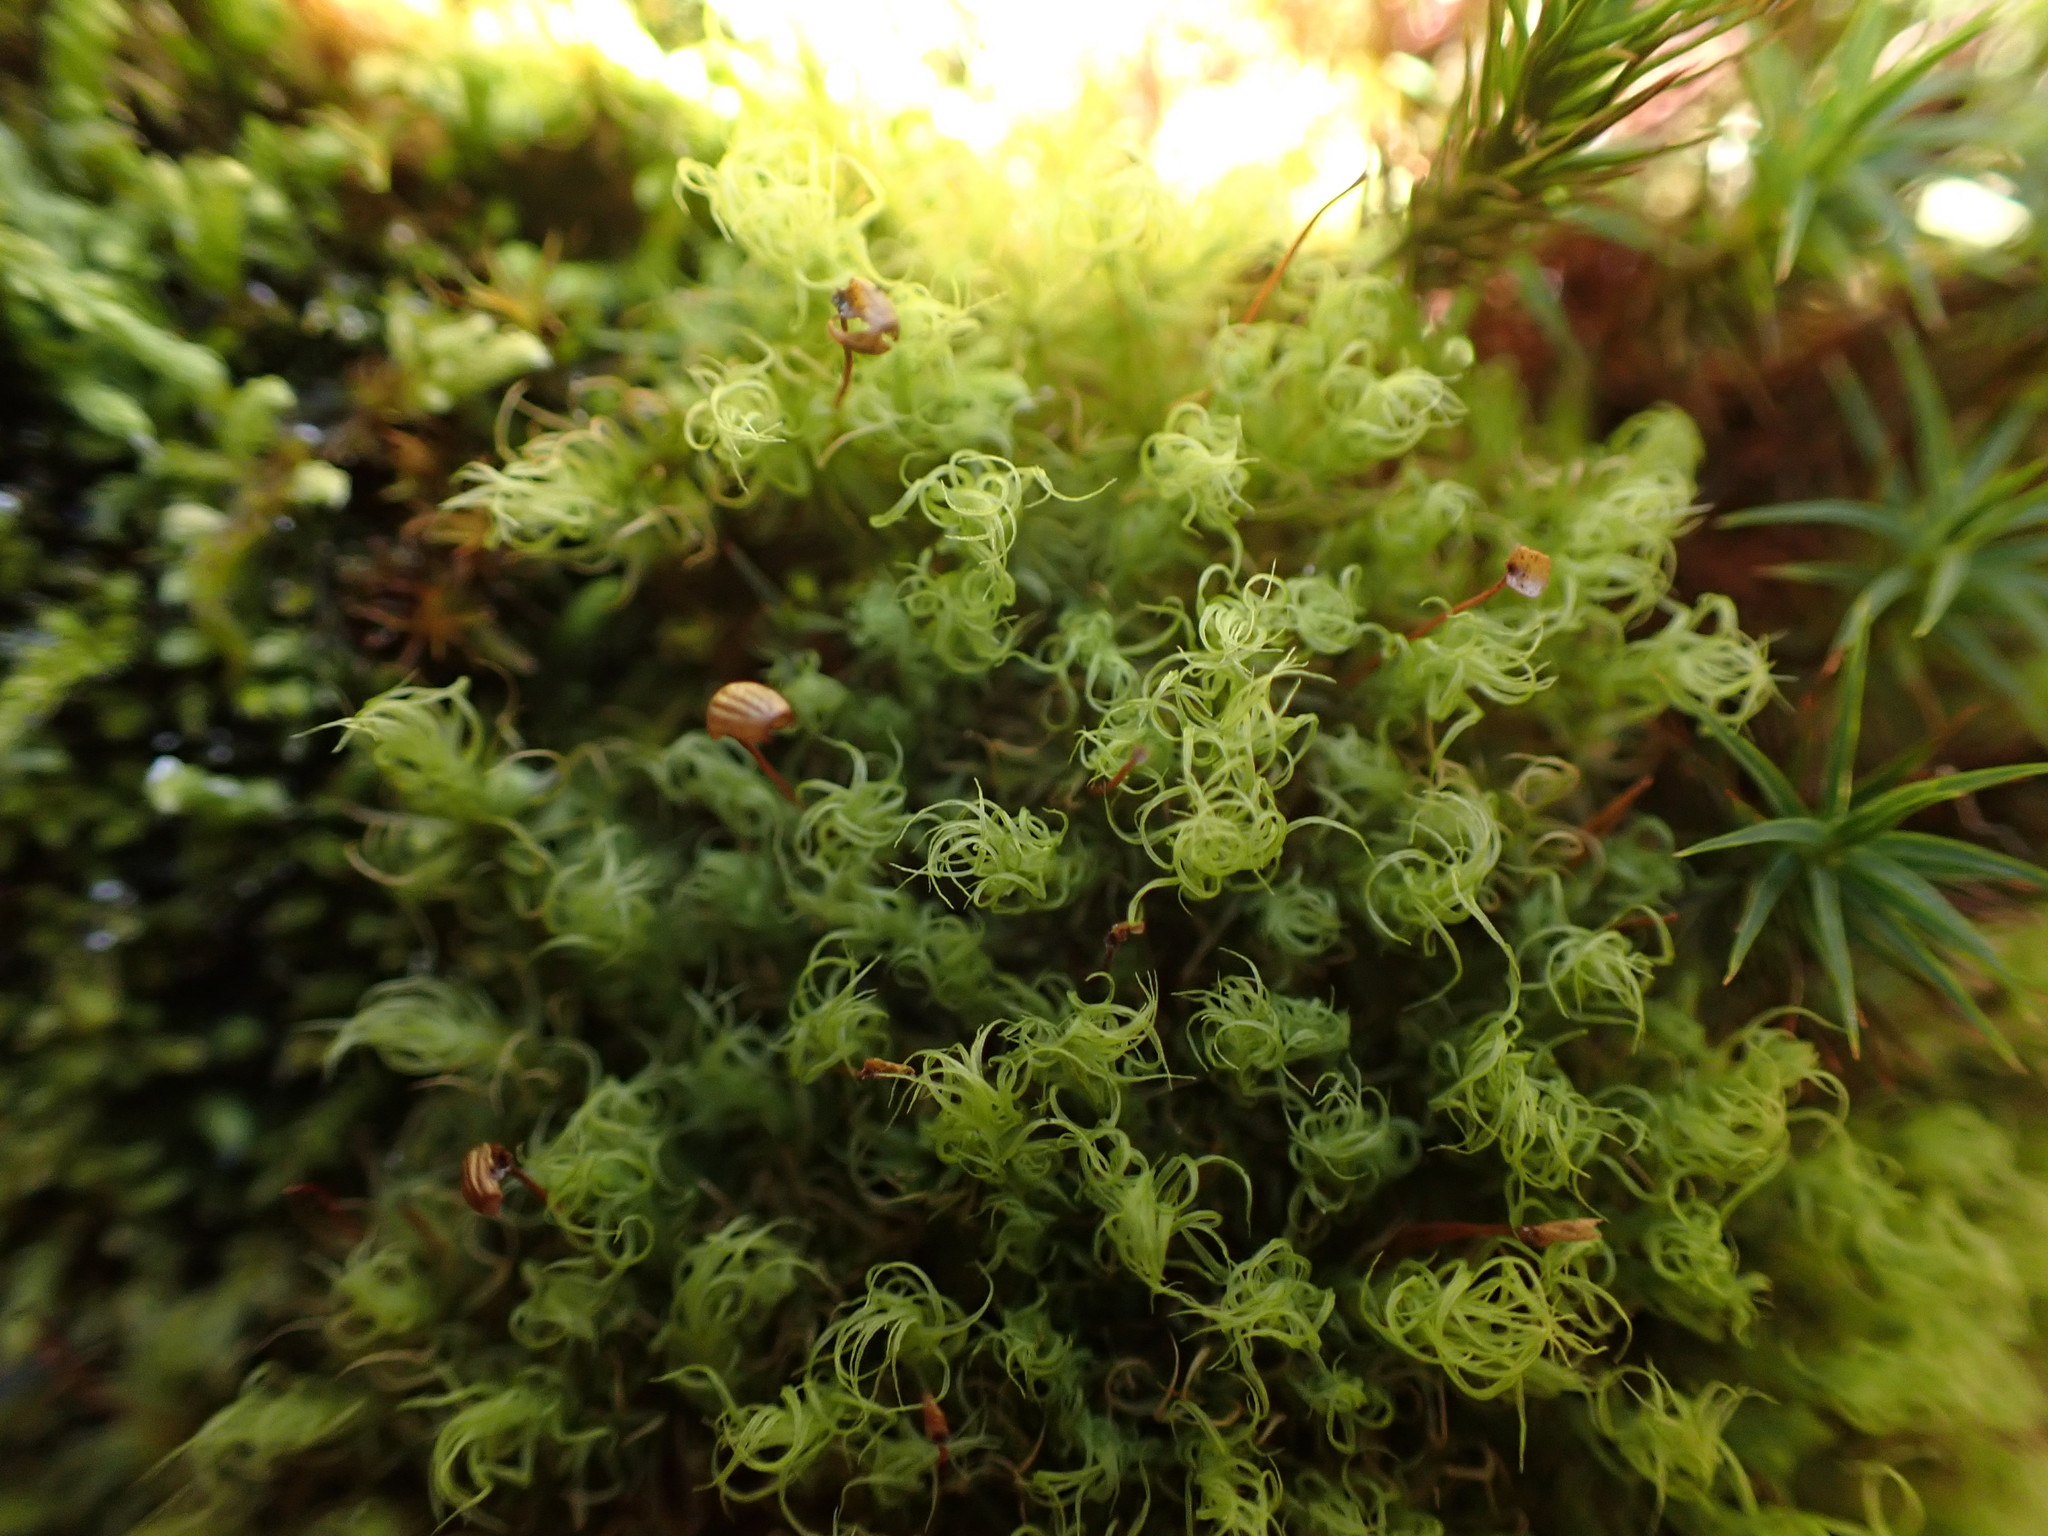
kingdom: Plantae
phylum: Bryophyta
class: Bryopsida
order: Bartramiales
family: Bartramiaceae
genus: Bartramia
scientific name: Bartramia ithyphylla
